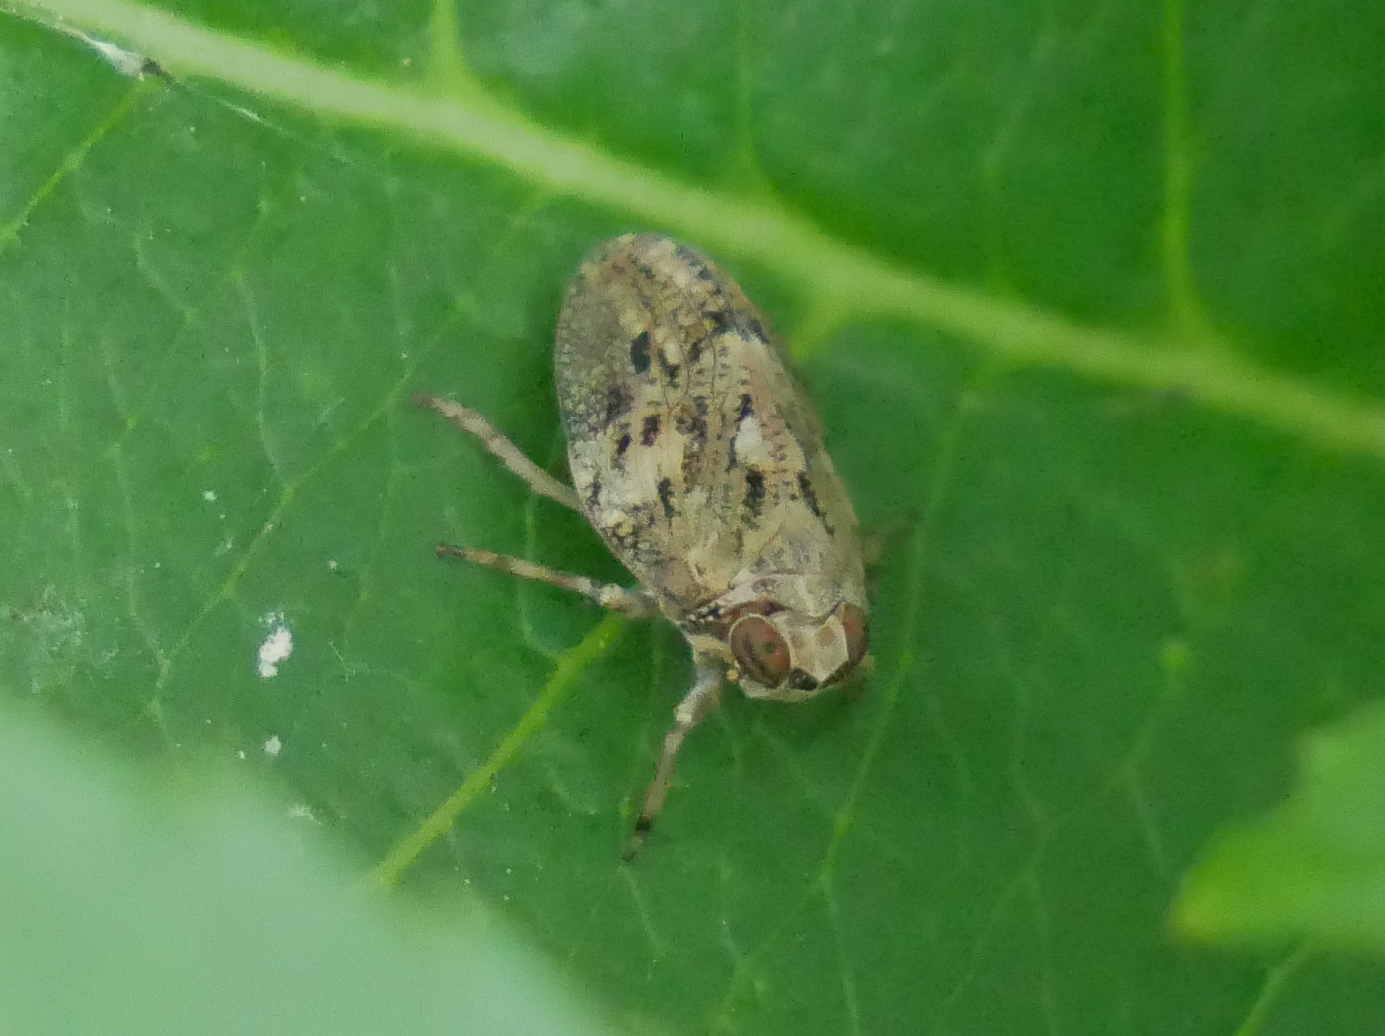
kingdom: Animalia
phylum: Arthropoda
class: Insecta
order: Hemiptera
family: Issidae
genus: Issus
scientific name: Issus coleoptratus
